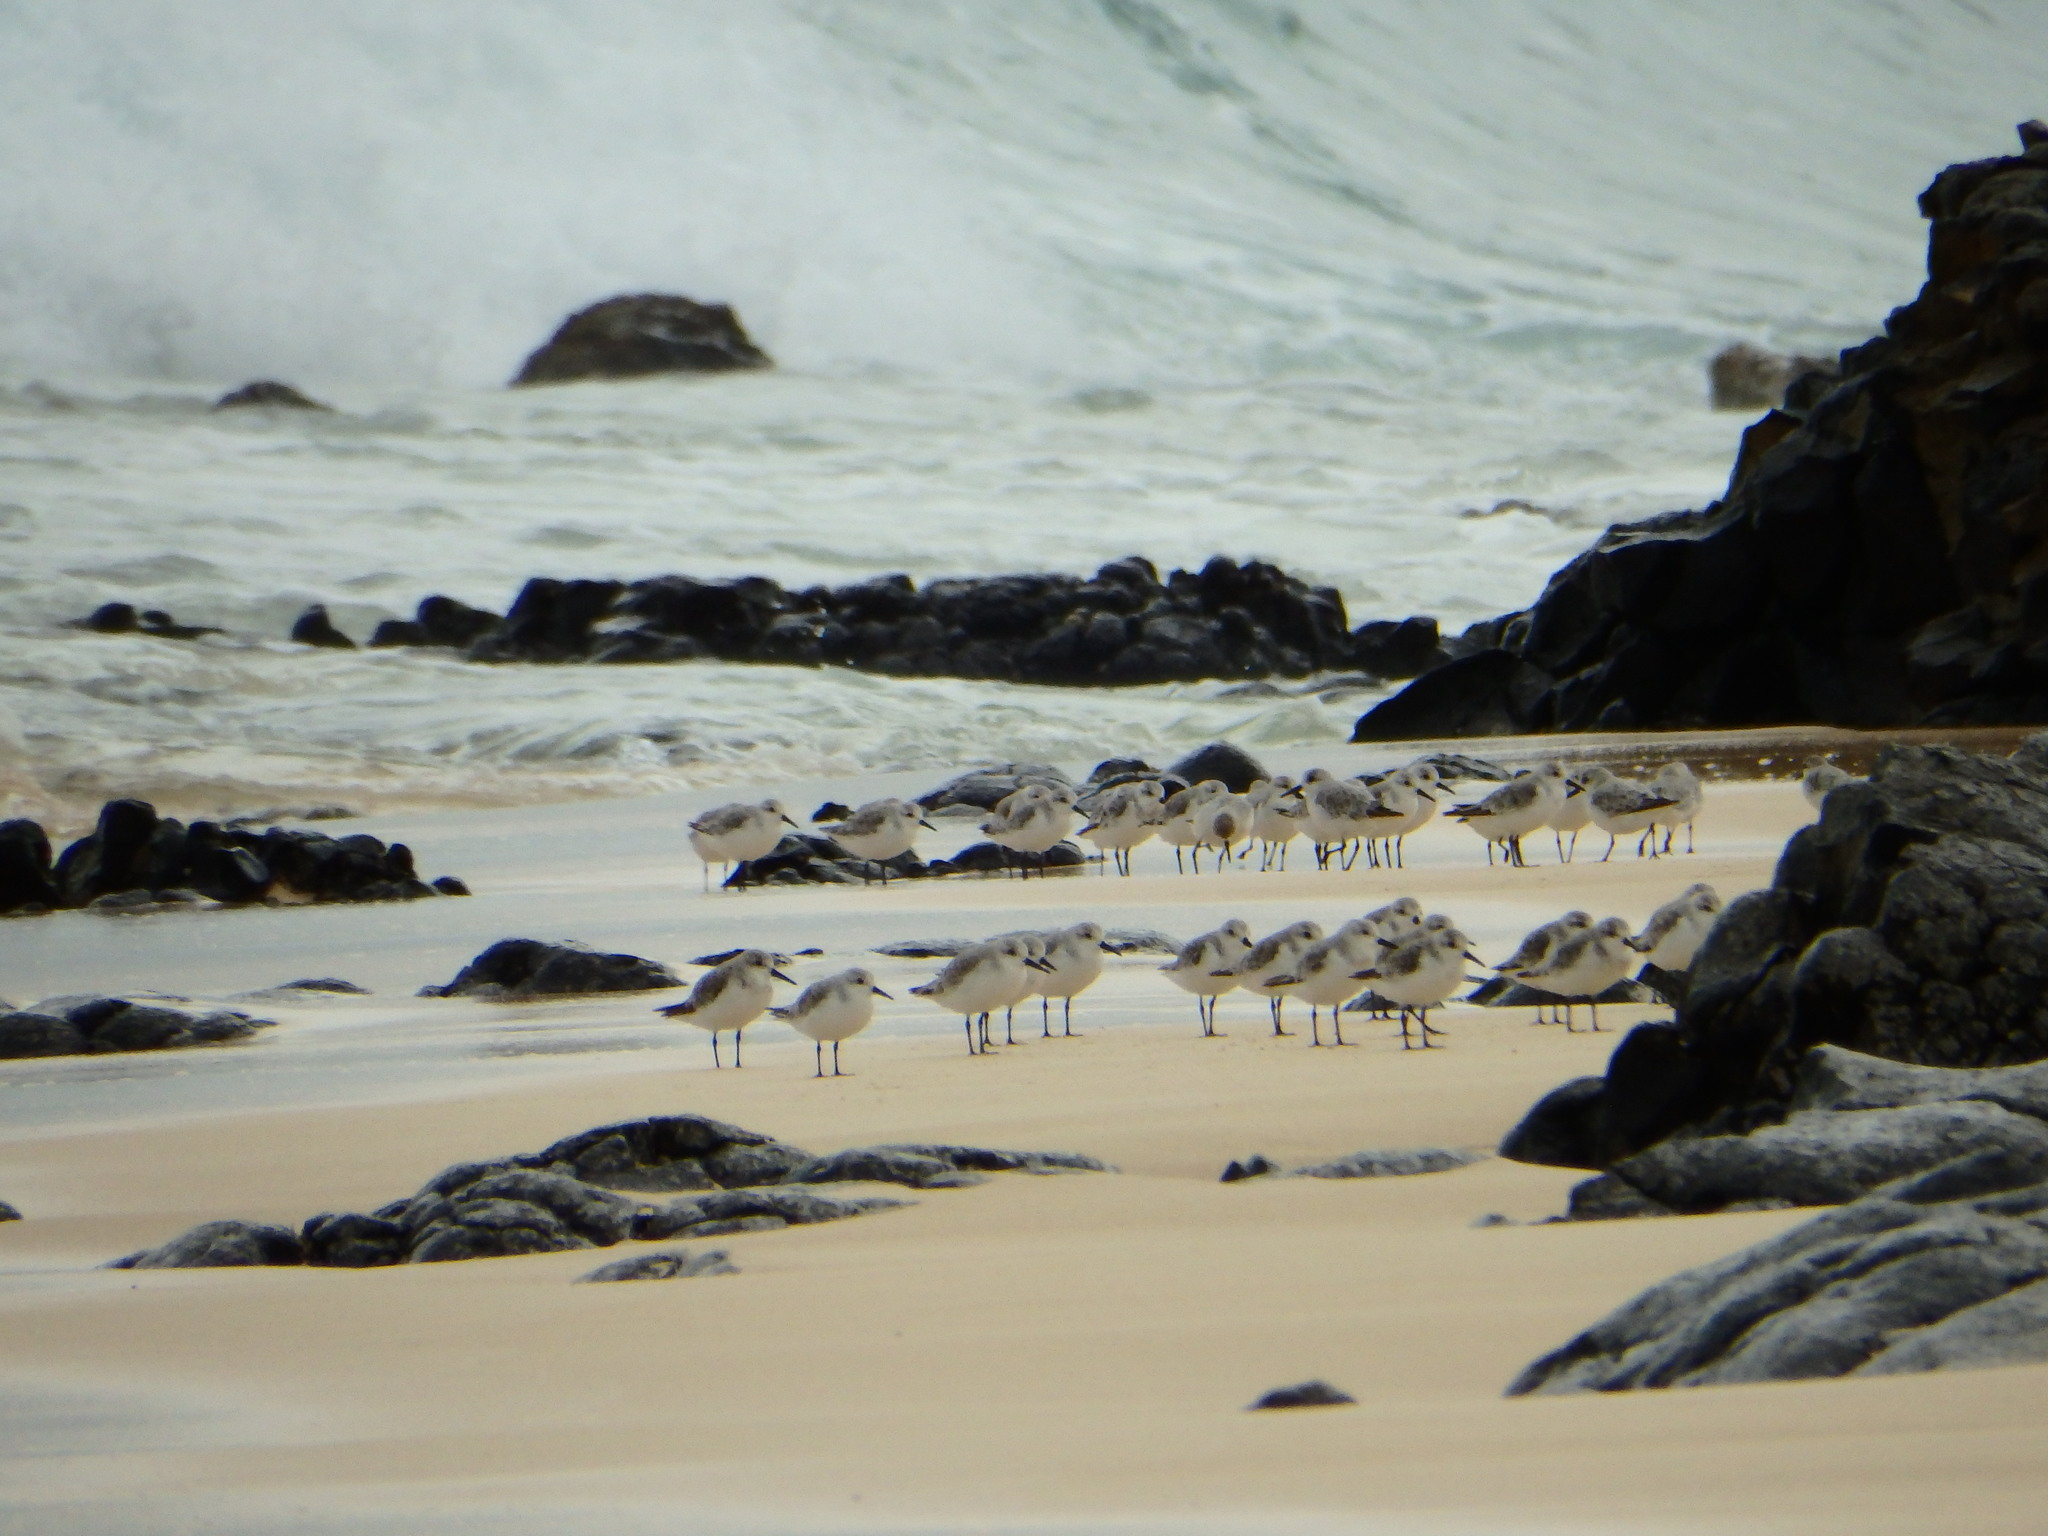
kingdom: Animalia
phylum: Chordata
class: Aves
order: Charadriiformes
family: Scolopacidae
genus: Calidris
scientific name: Calidris alba
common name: Sanderling
